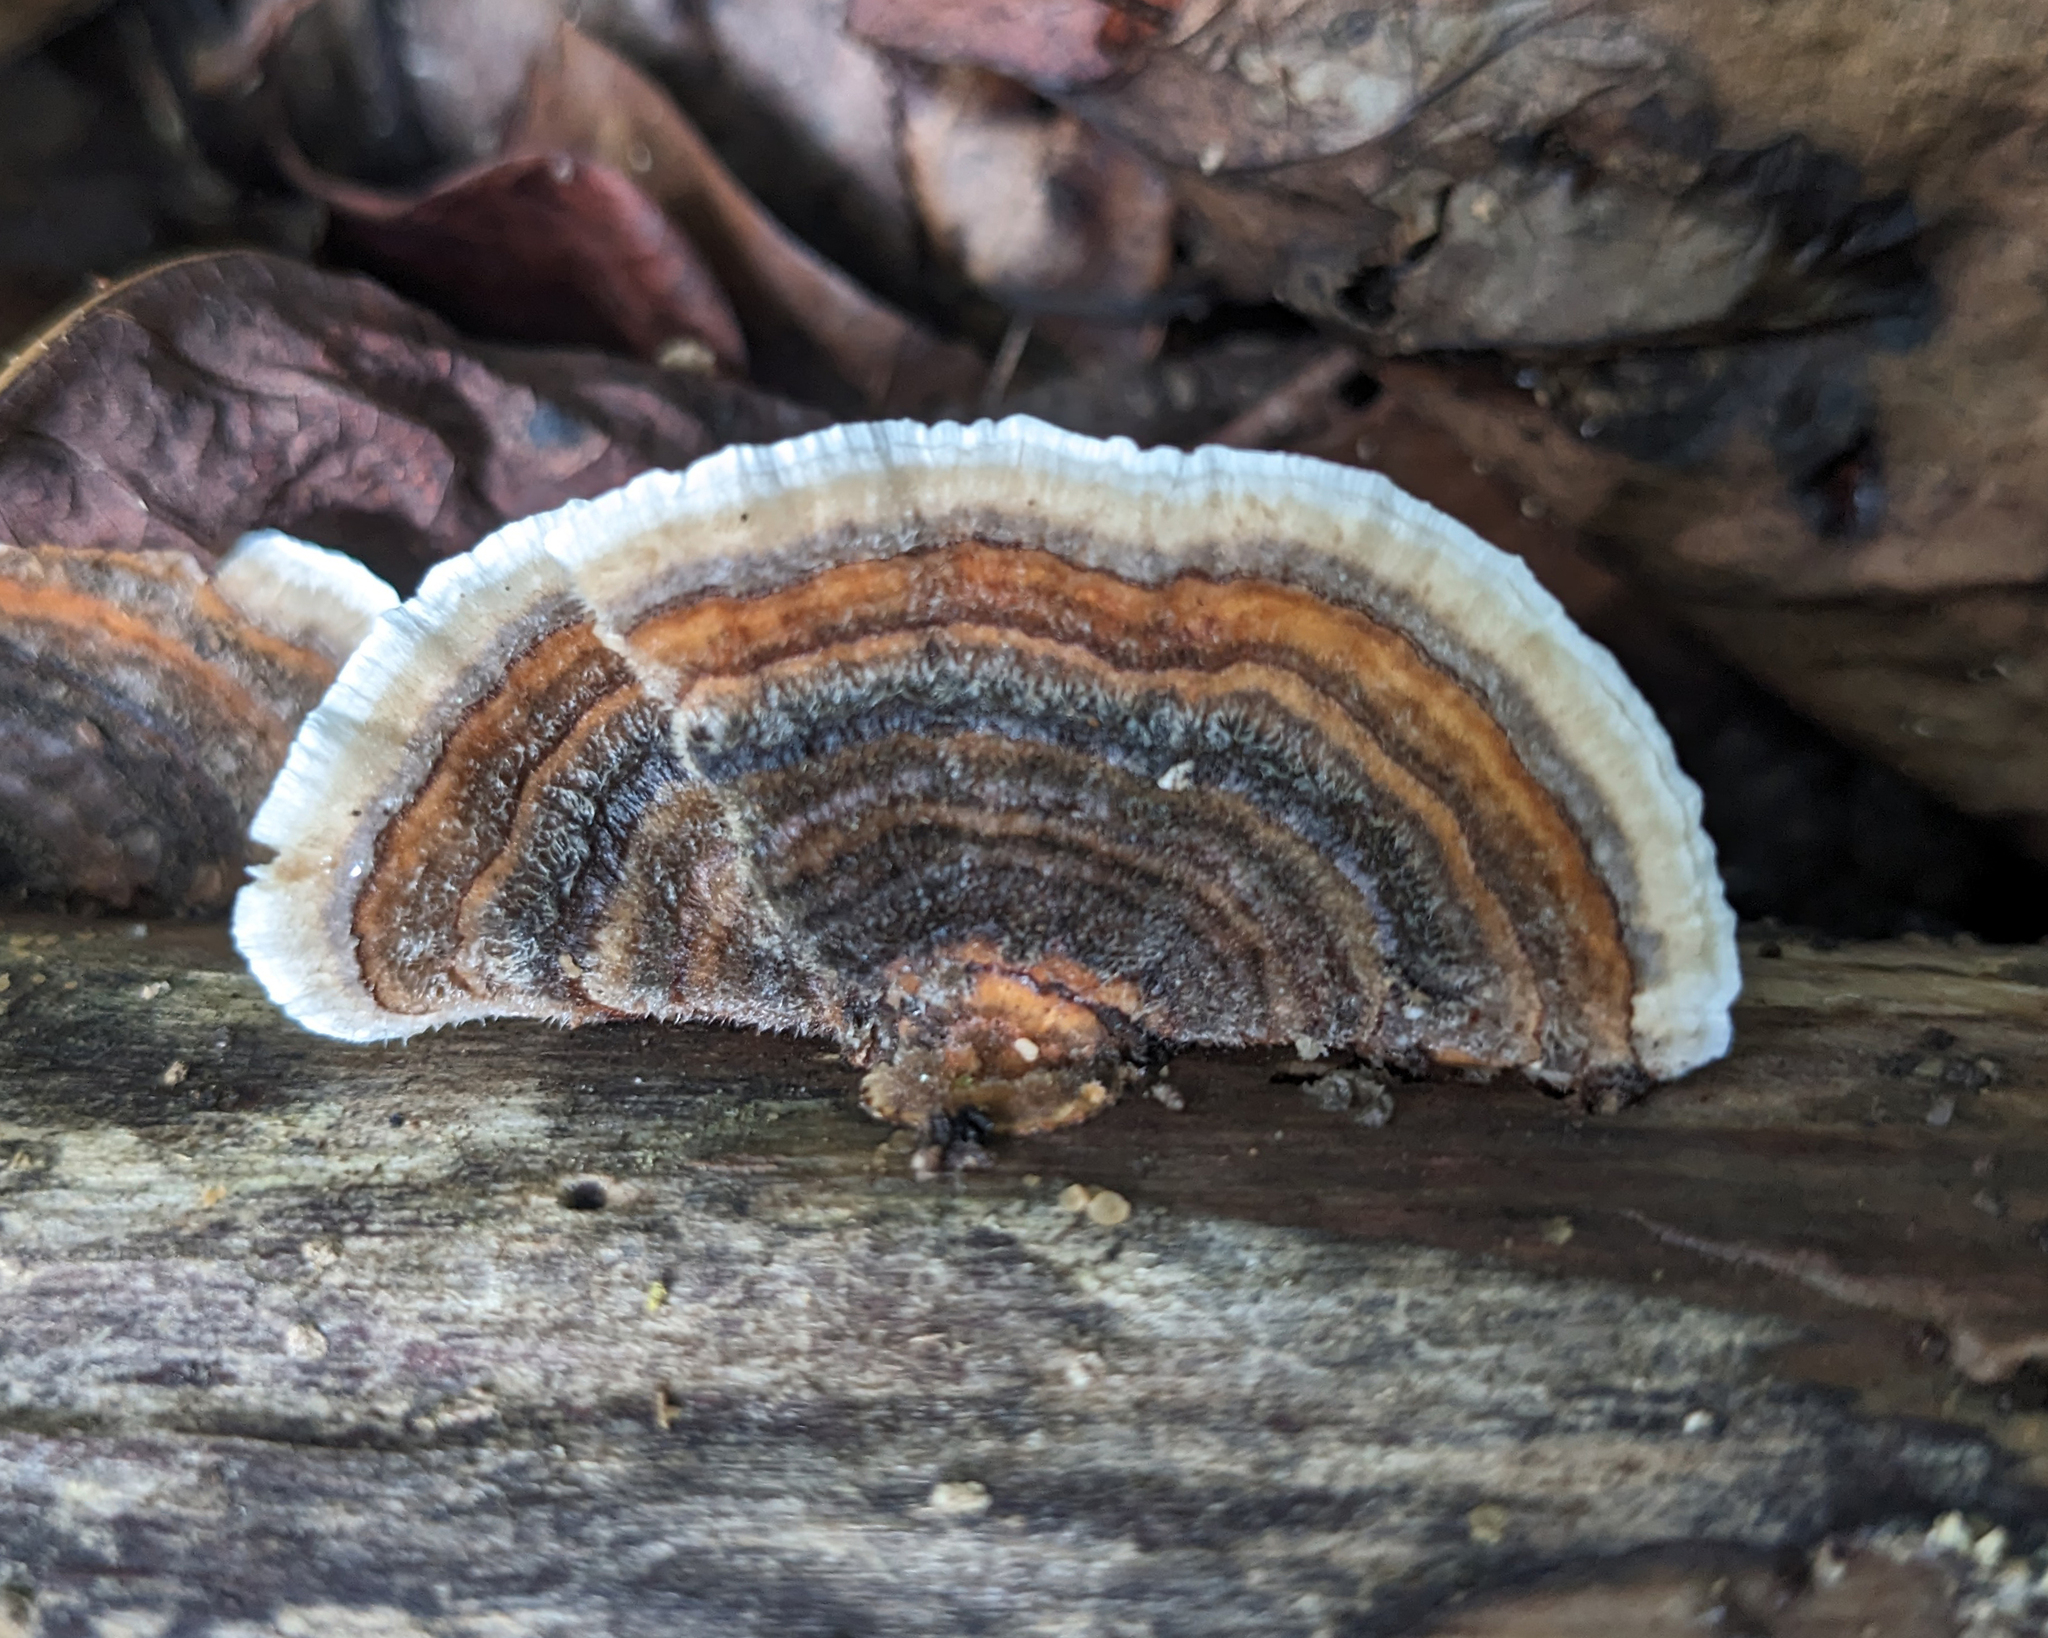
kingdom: Fungi
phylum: Basidiomycota
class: Agaricomycetes
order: Polyporales
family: Polyporaceae
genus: Trametes
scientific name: Trametes versicolor
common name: Turkeytail
